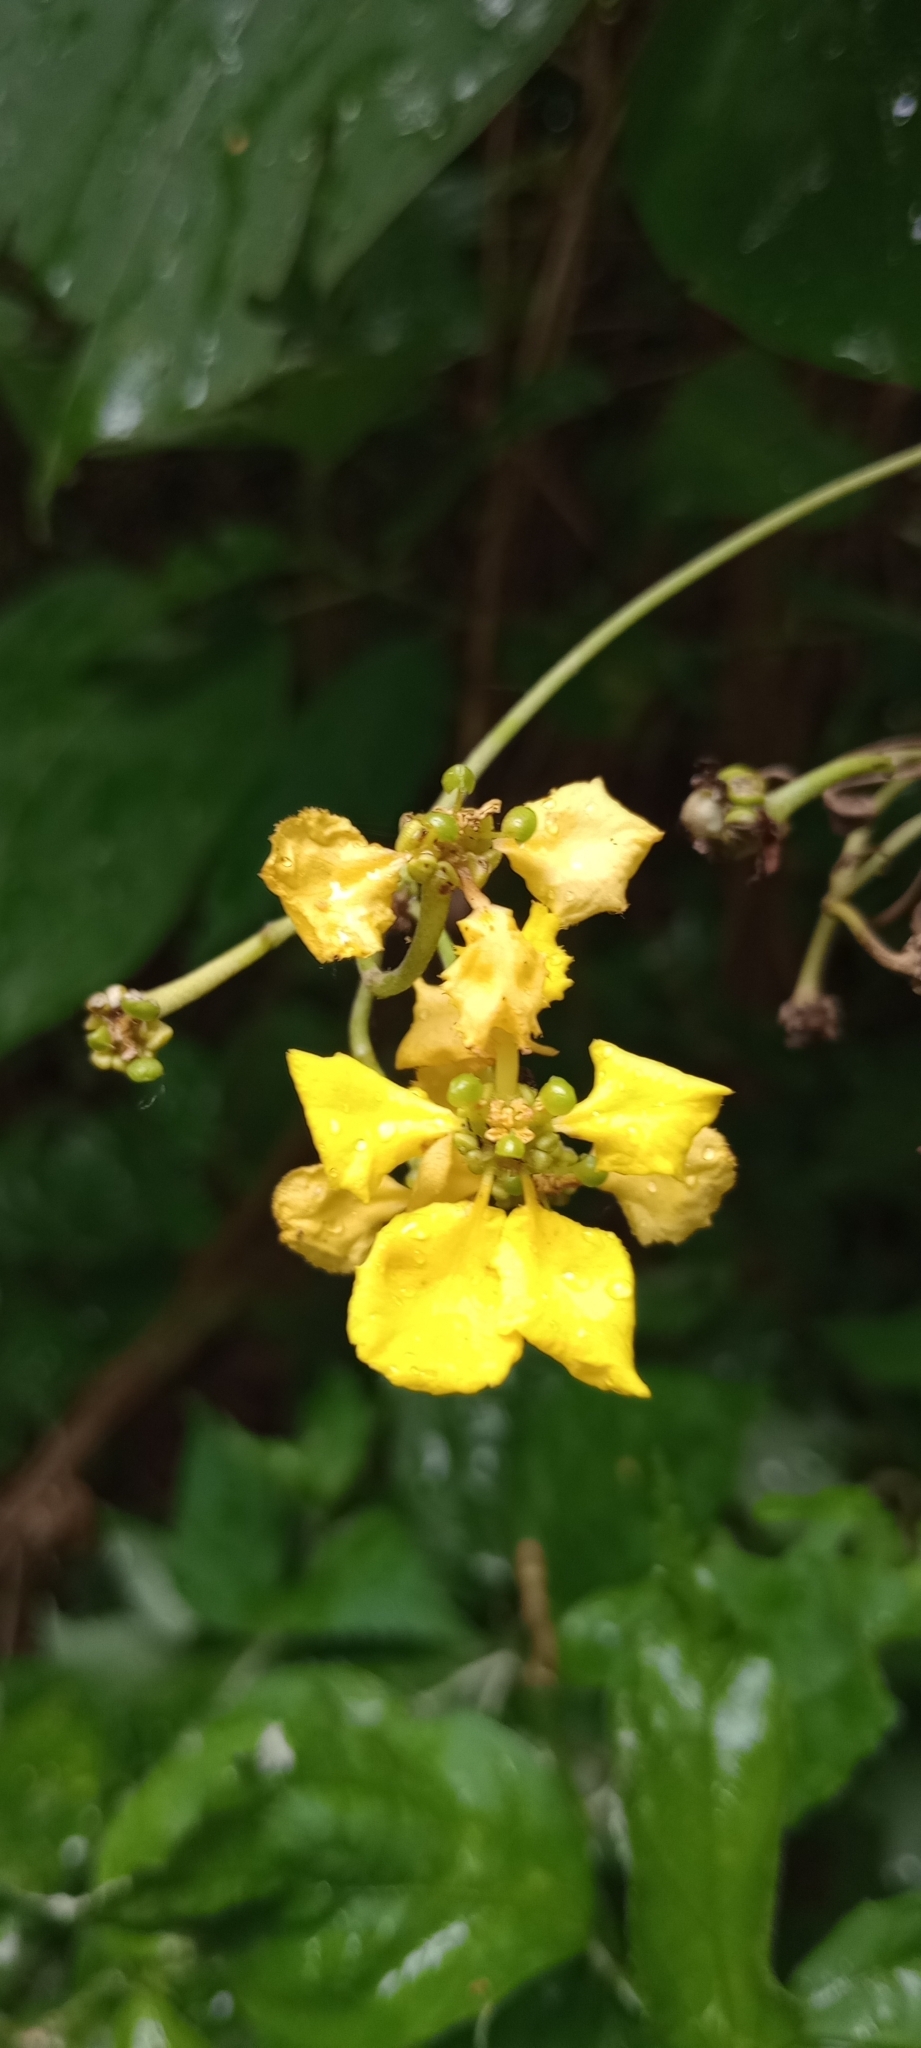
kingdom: Plantae
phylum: Tracheophyta
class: Magnoliopsida
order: Malpighiales
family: Malpighiaceae
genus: Stigmaphyllon
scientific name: Stigmaphyllon bonariense
